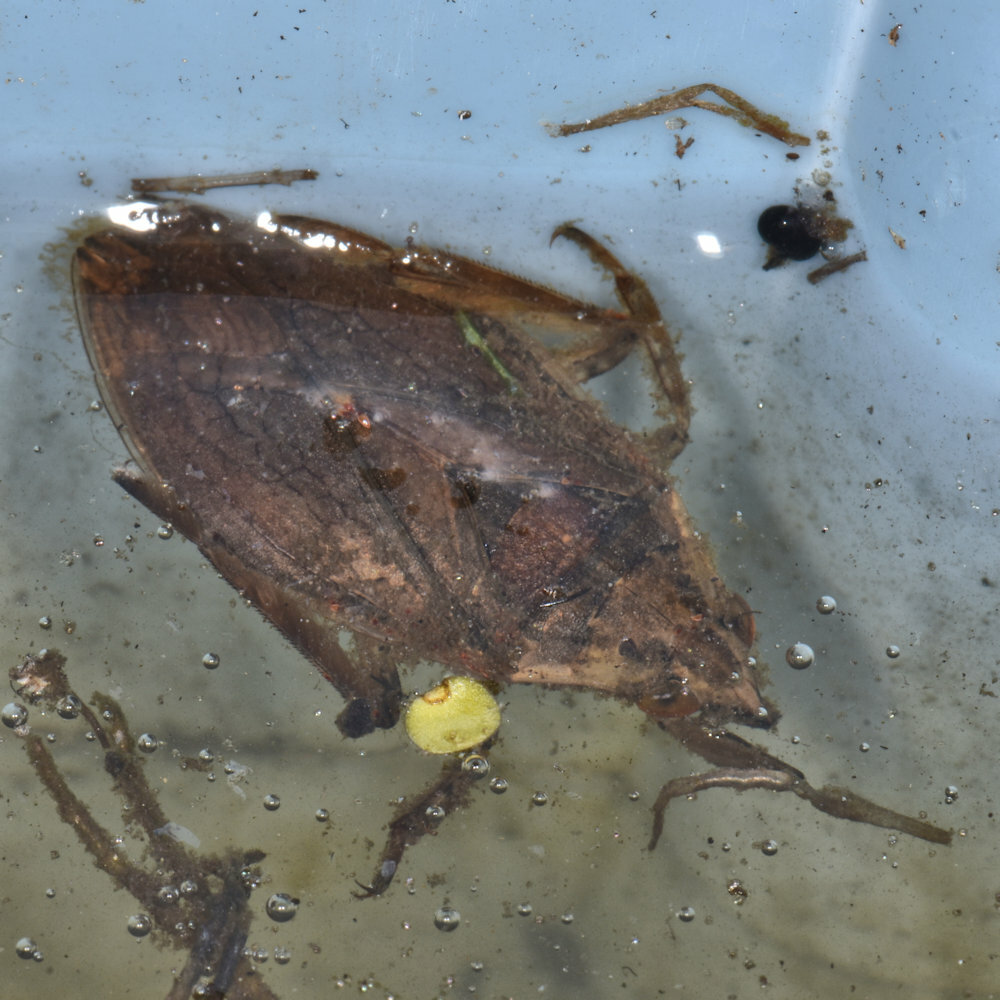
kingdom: Animalia
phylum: Arthropoda
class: Insecta
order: Hemiptera
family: Belostomatidae
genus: Belostoma
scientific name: Belostoma flumineum
